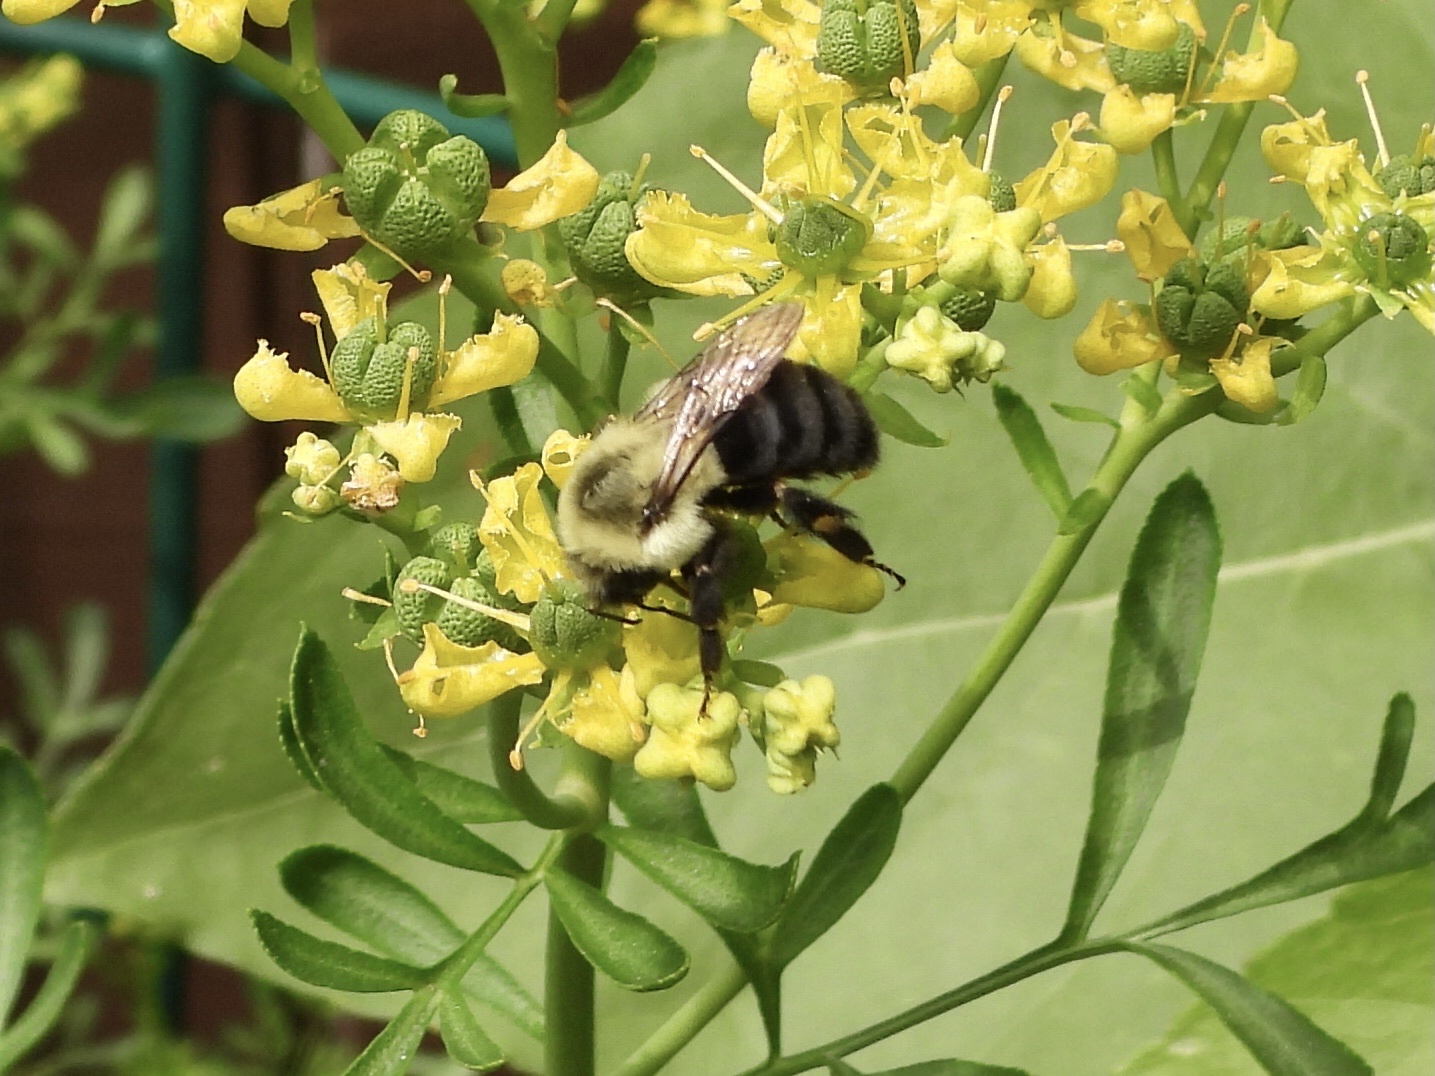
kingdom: Animalia
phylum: Arthropoda
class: Insecta
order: Hymenoptera
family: Apidae
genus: Bombus
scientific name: Bombus impatiens
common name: Common eastern bumble bee
